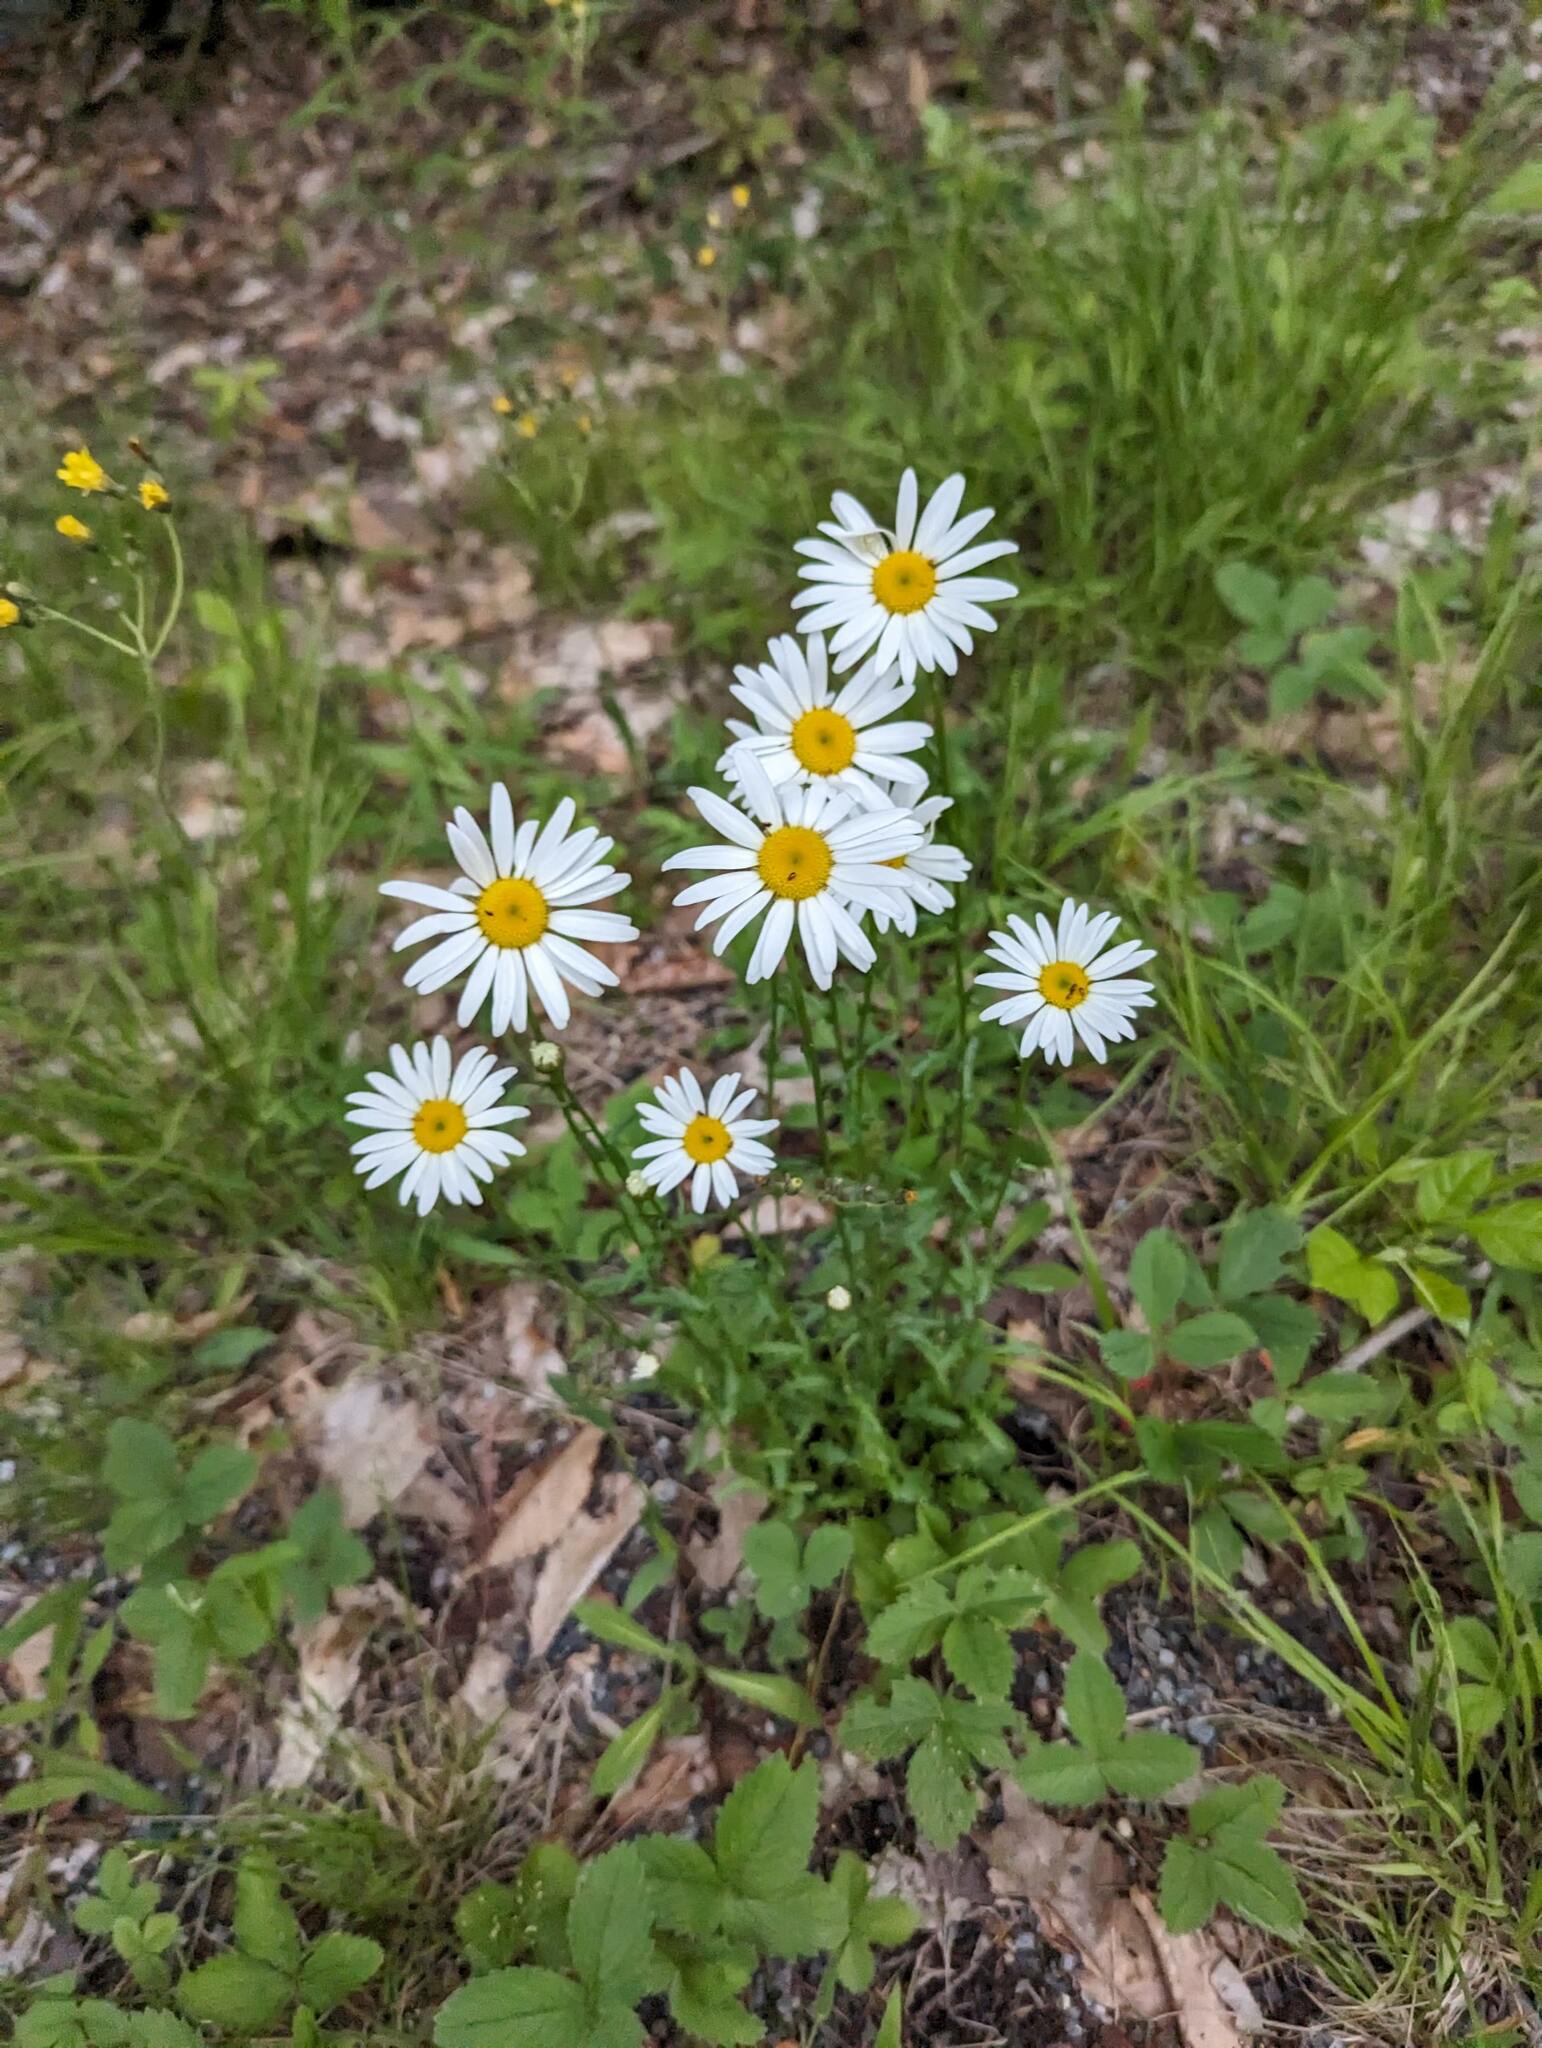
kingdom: Plantae
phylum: Tracheophyta
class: Magnoliopsida
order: Asterales
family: Asteraceae
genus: Leucanthemum
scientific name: Leucanthemum vulgare
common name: Oxeye daisy
